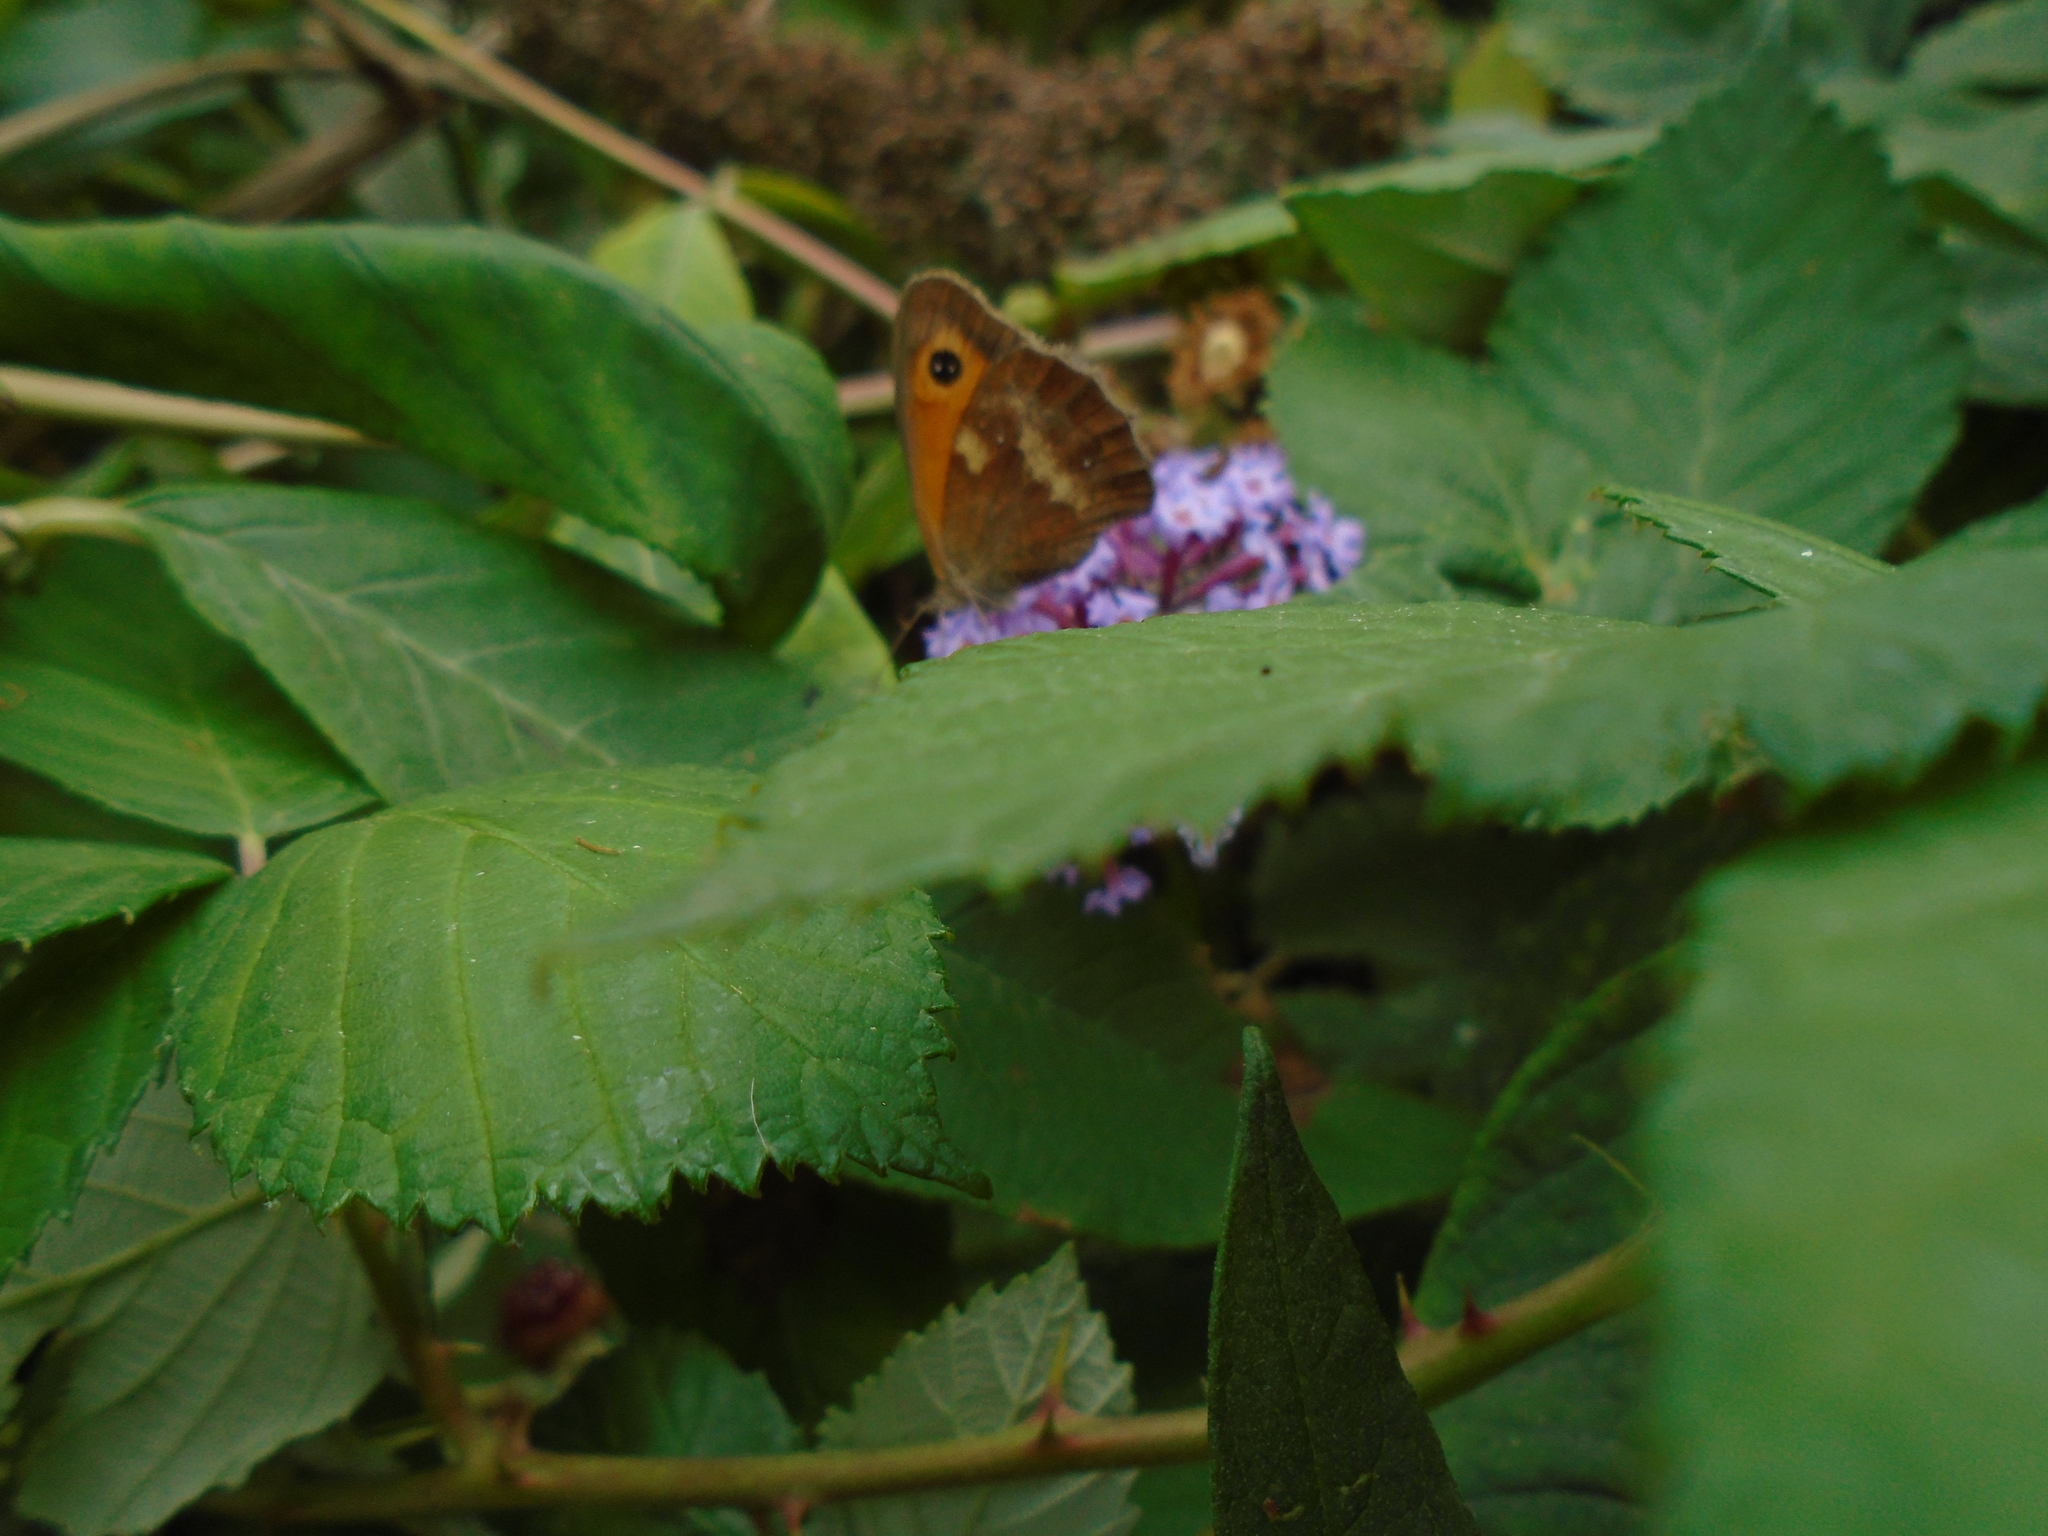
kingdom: Animalia
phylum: Arthropoda
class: Insecta
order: Lepidoptera
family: Nymphalidae
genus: Pyronia
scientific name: Pyronia tithonus
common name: Gatekeeper
